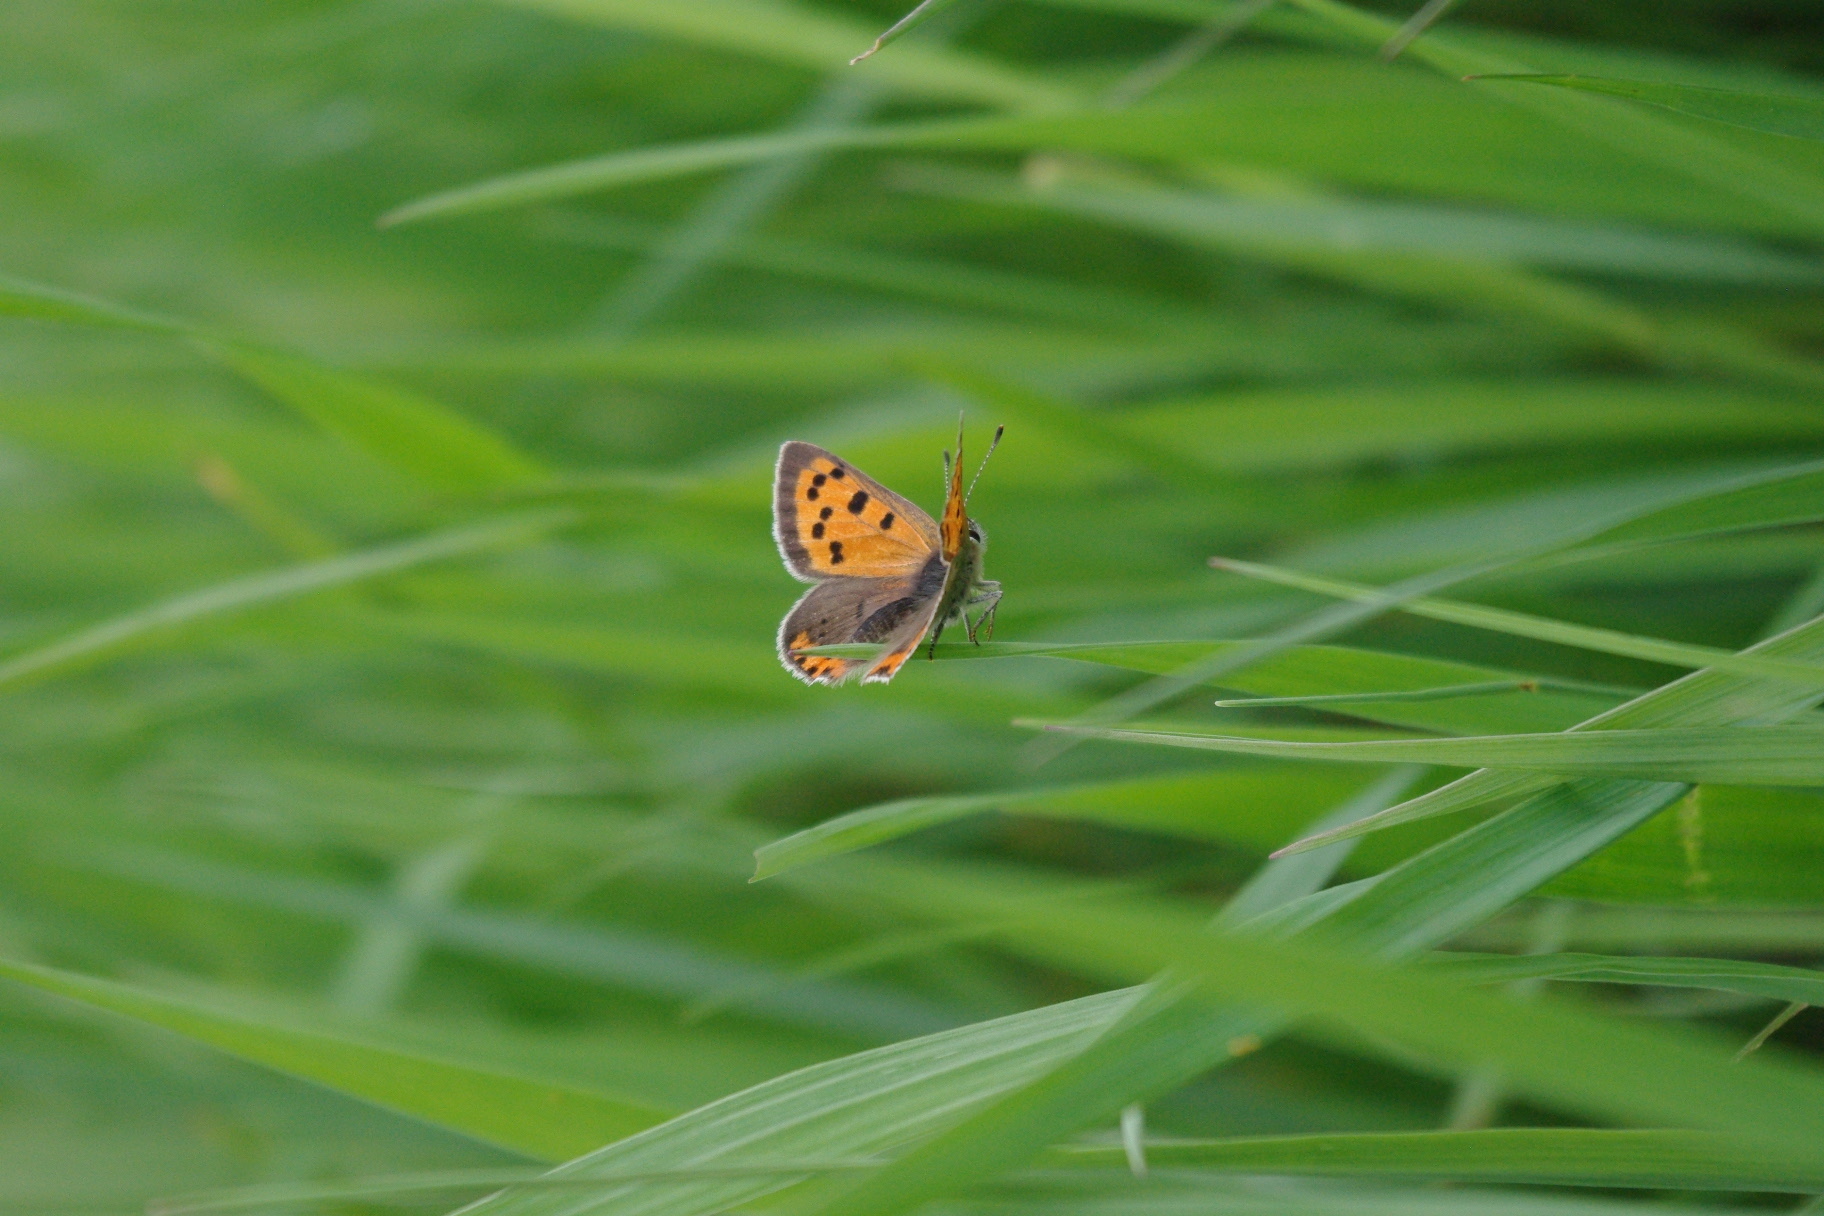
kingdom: Animalia
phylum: Arthropoda
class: Insecta
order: Lepidoptera
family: Lycaenidae
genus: Lycaena
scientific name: Lycaena hypophlaeas
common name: American copper
